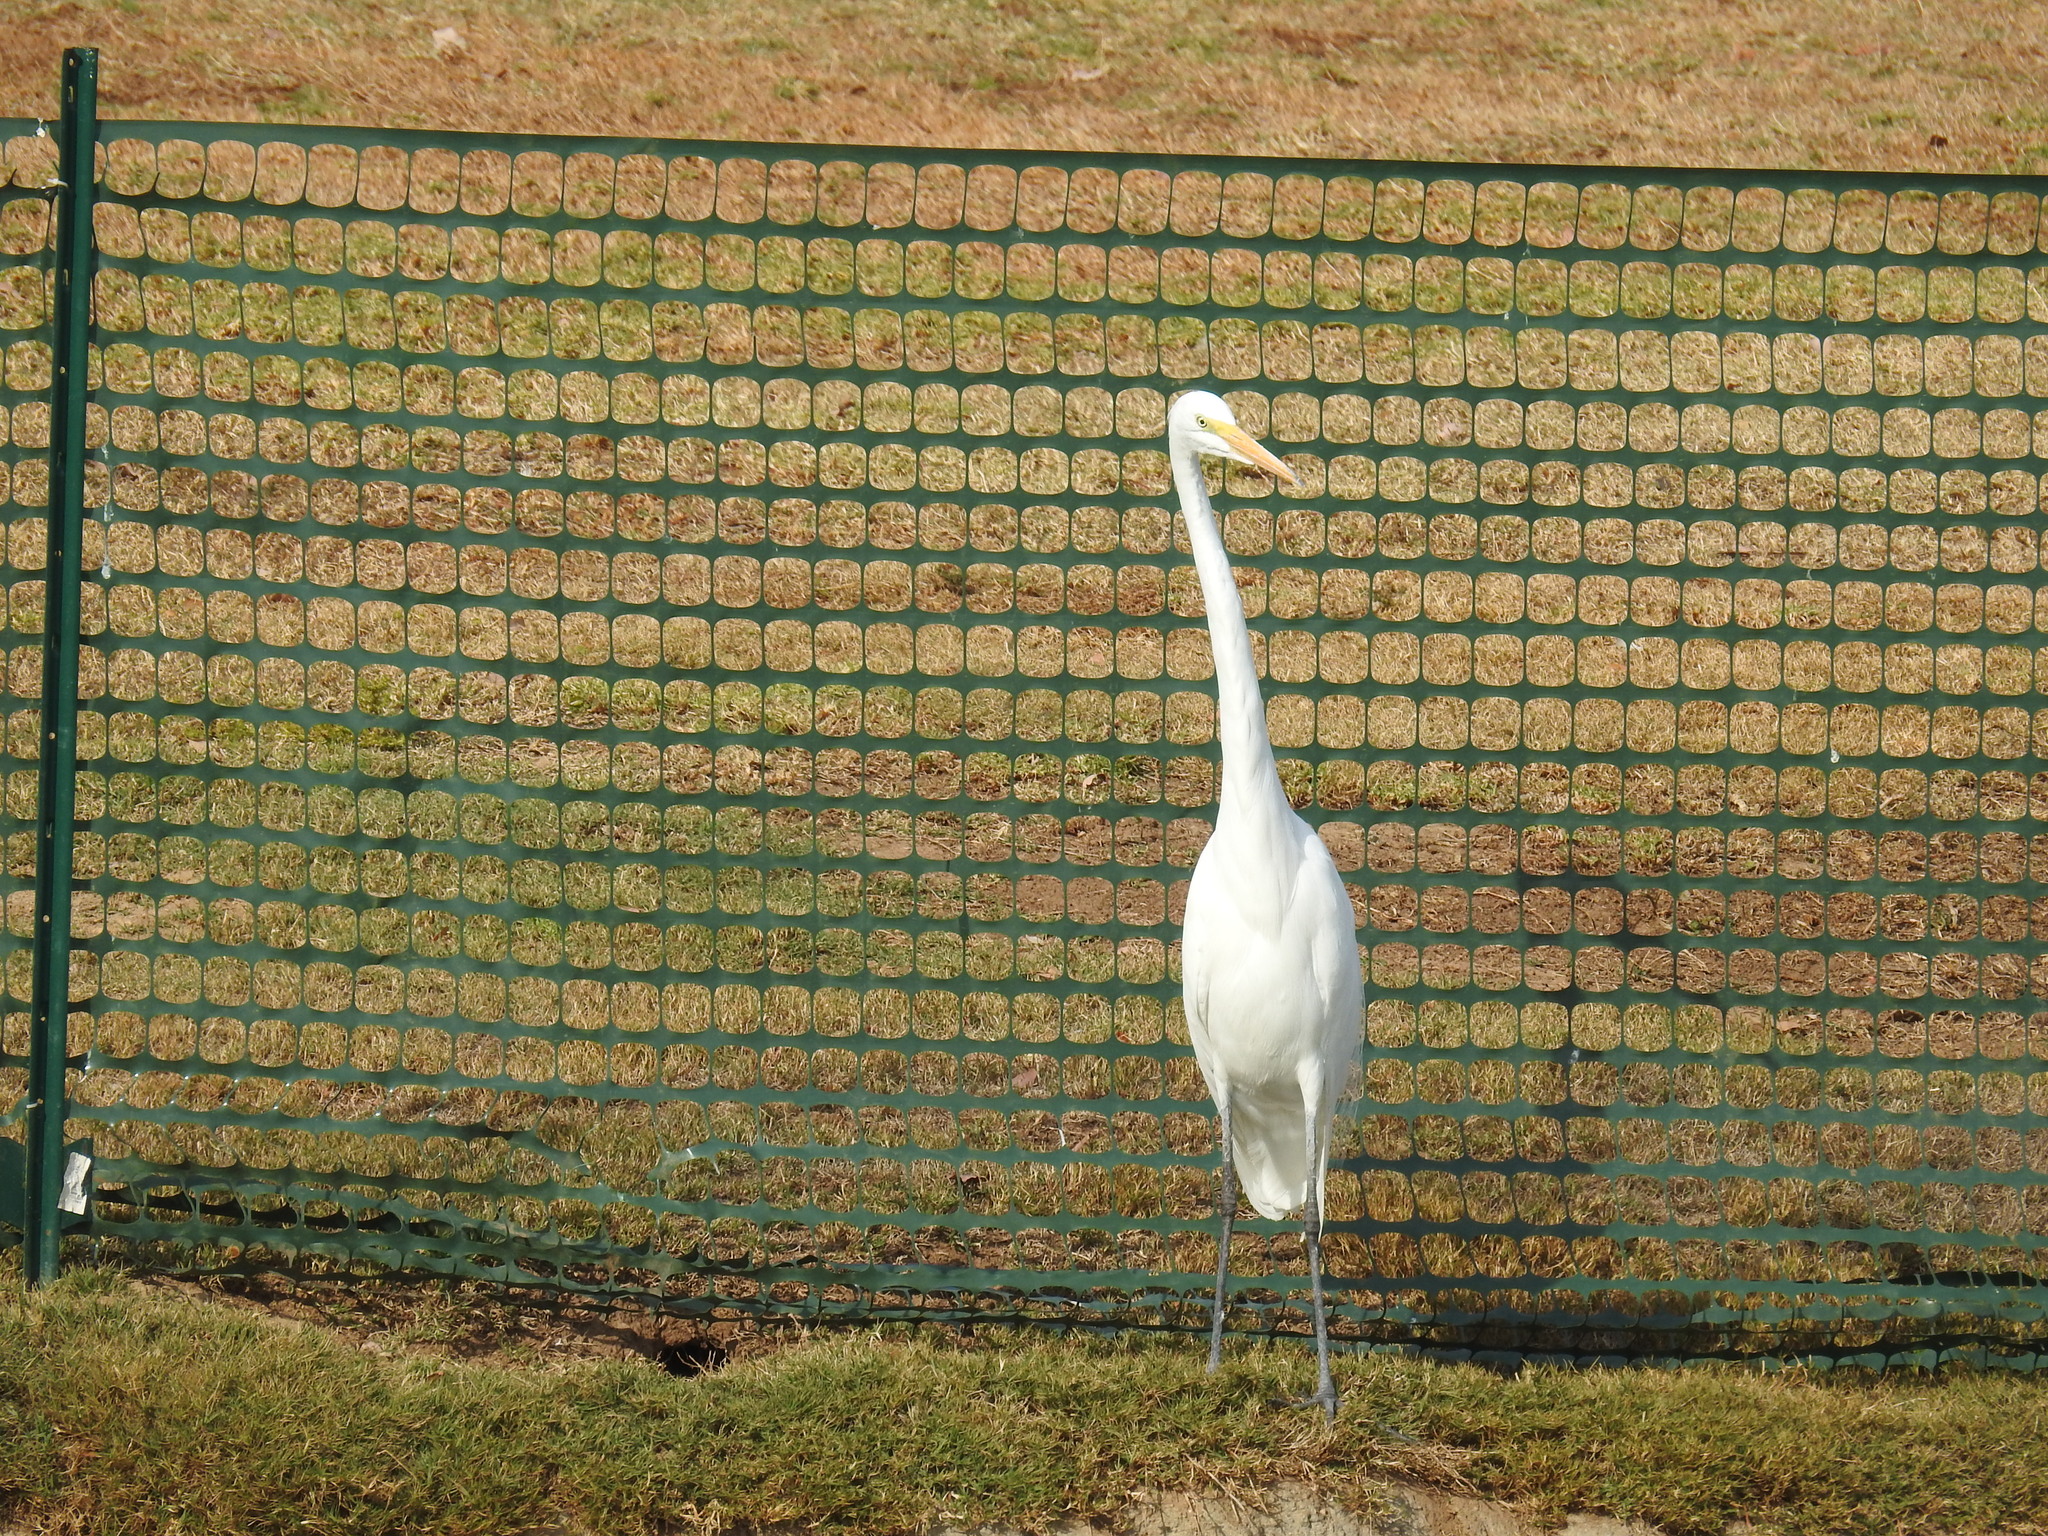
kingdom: Animalia
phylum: Chordata
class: Aves
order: Pelecaniformes
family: Ardeidae
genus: Ardea
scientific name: Ardea alba
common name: Great egret
